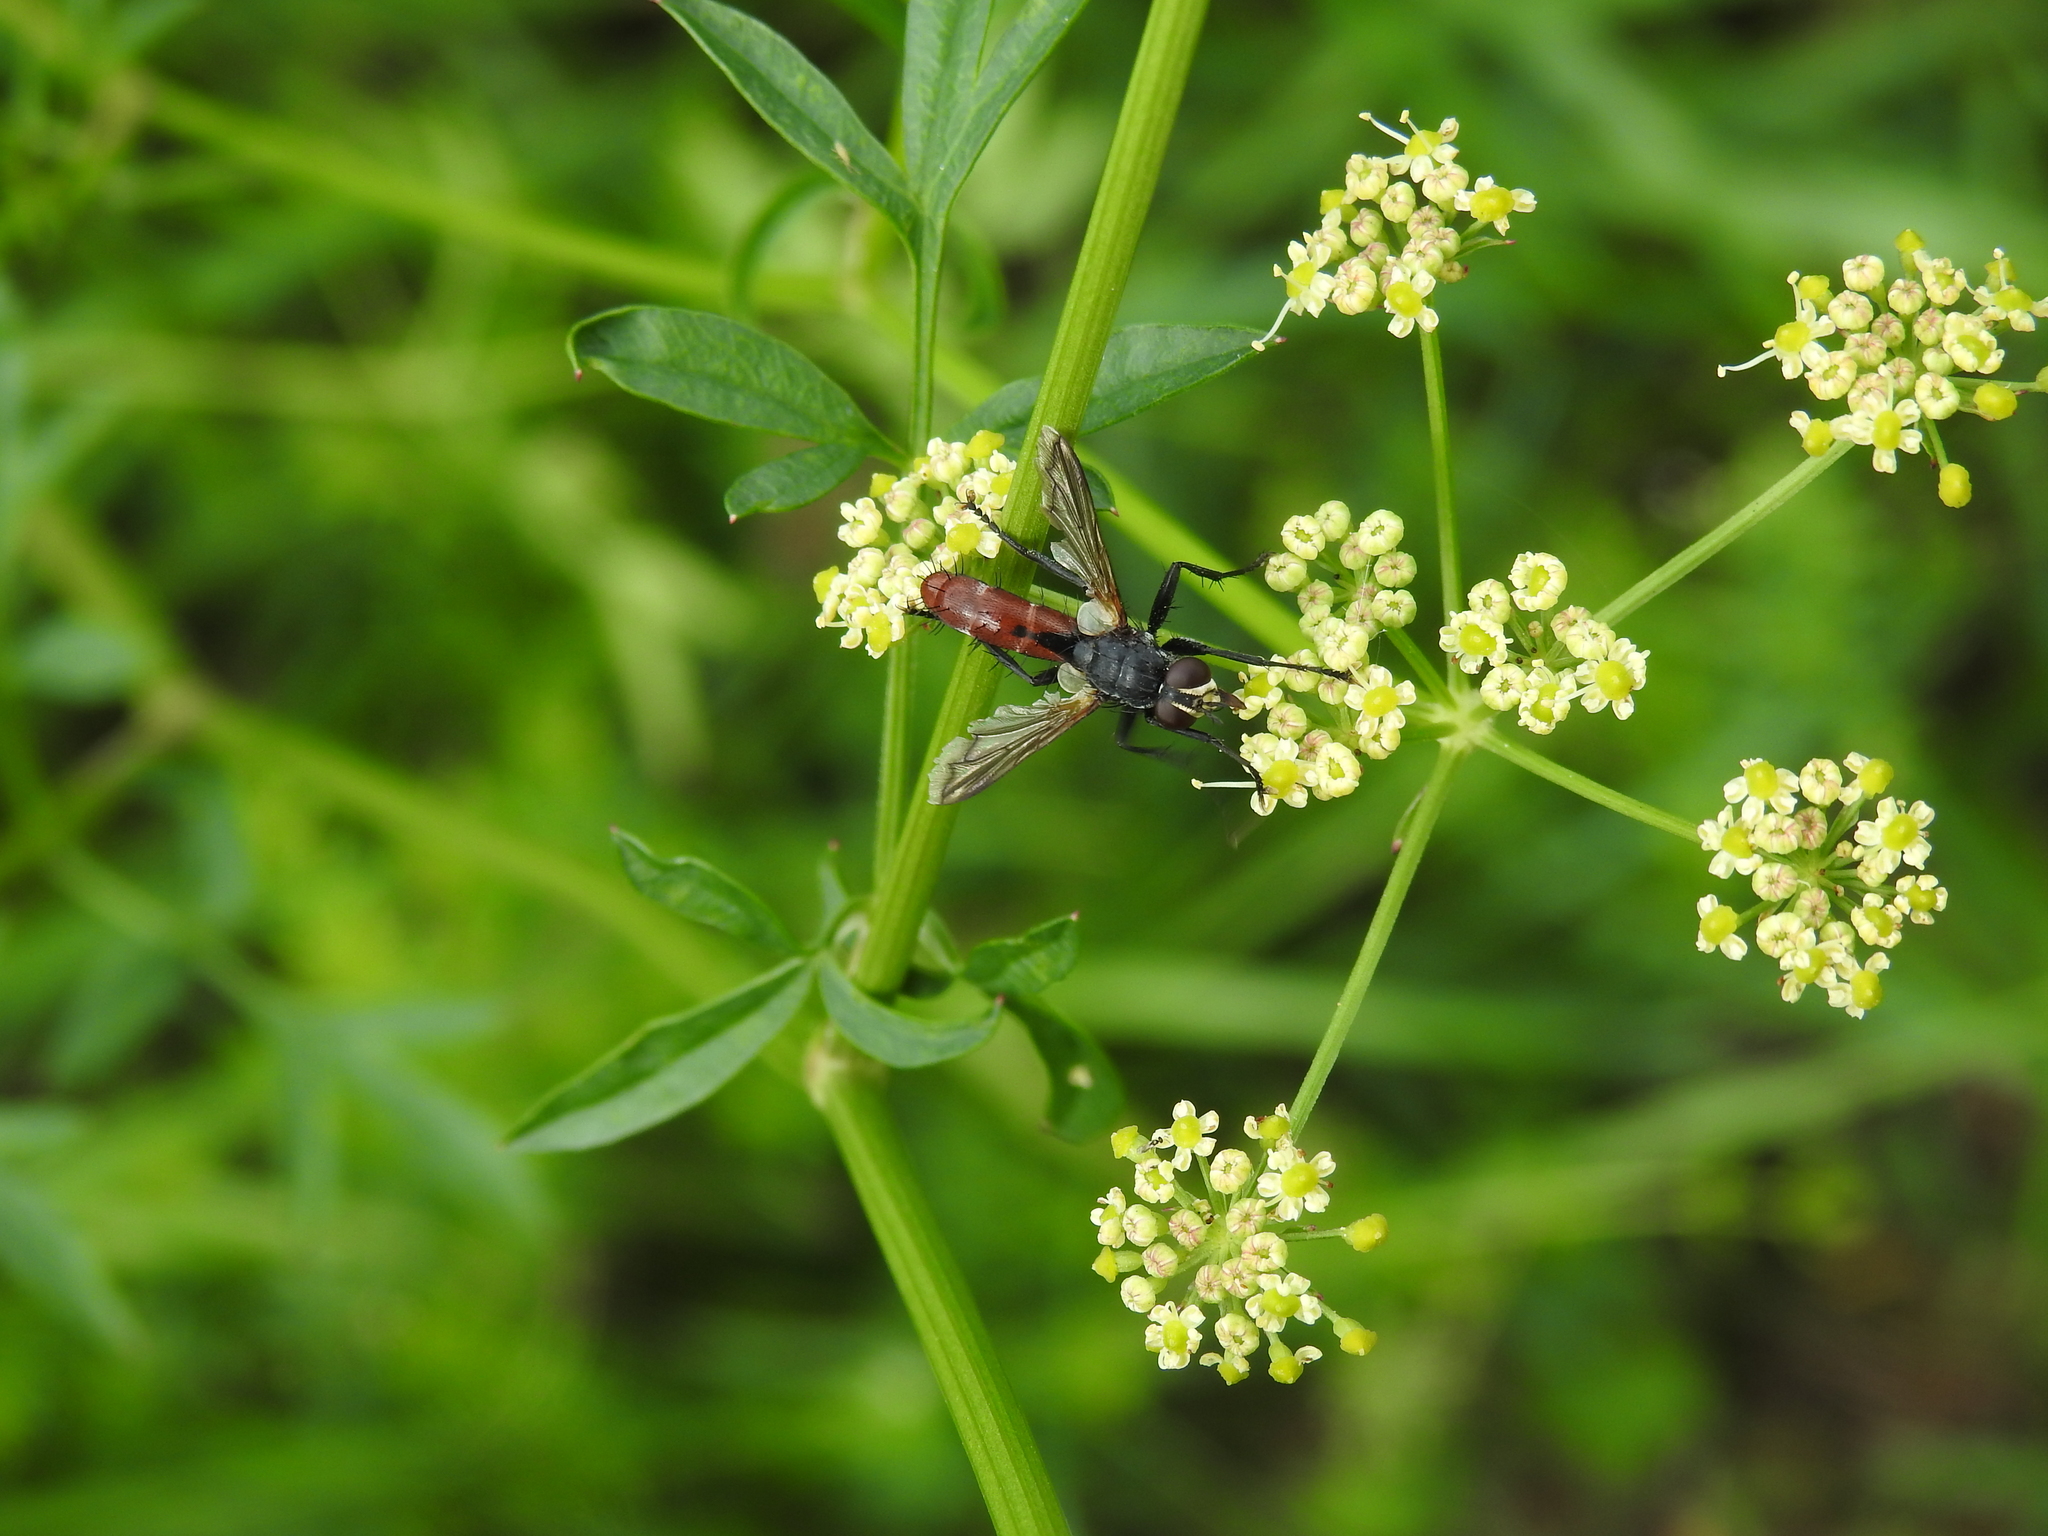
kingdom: Animalia
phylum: Arthropoda
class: Insecta
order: Diptera
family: Tachinidae
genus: Cylindromyia
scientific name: Cylindromyia bicolor
